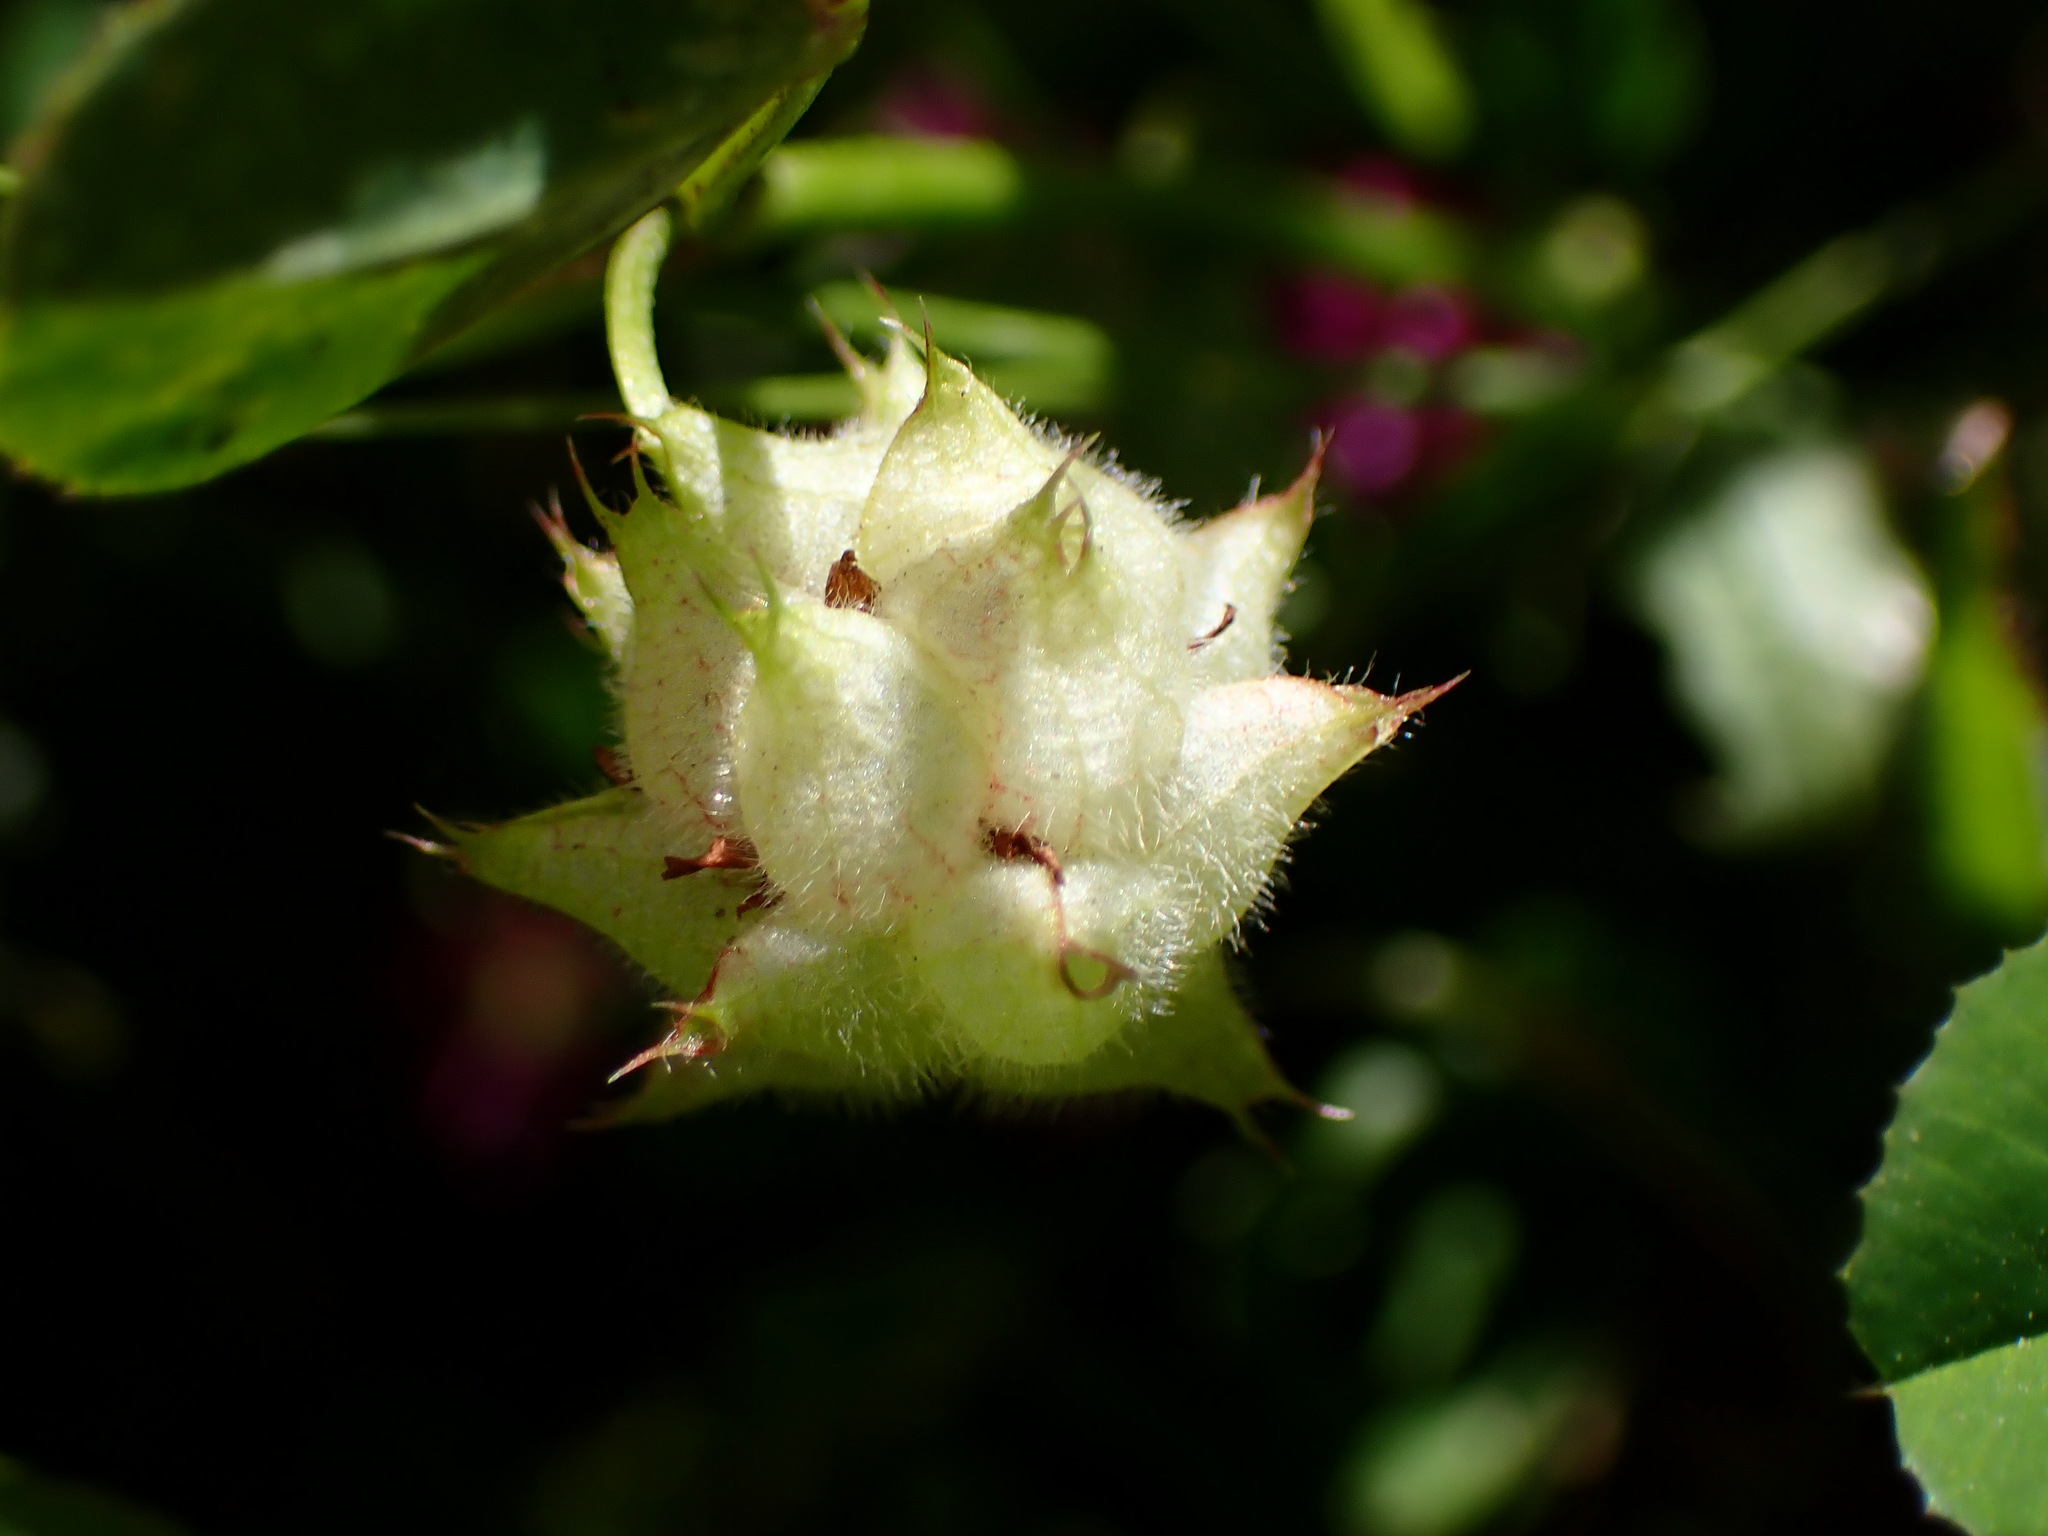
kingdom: Plantae
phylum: Tracheophyta
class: Magnoliopsida
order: Fabales
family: Fabaceae
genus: Trifolium
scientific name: Trifolium resupinatum
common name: Reversed clover
